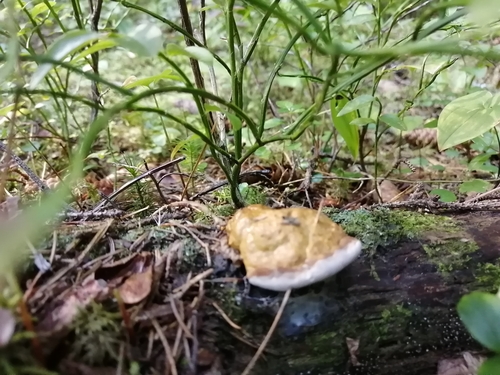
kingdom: Fungi
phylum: Basidiomycota
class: Agaricomycetes
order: Polyporales
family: Fomitopsidaceae
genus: Fomitopsis
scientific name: Fomitopsis pinicola
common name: Red-belted bracket
